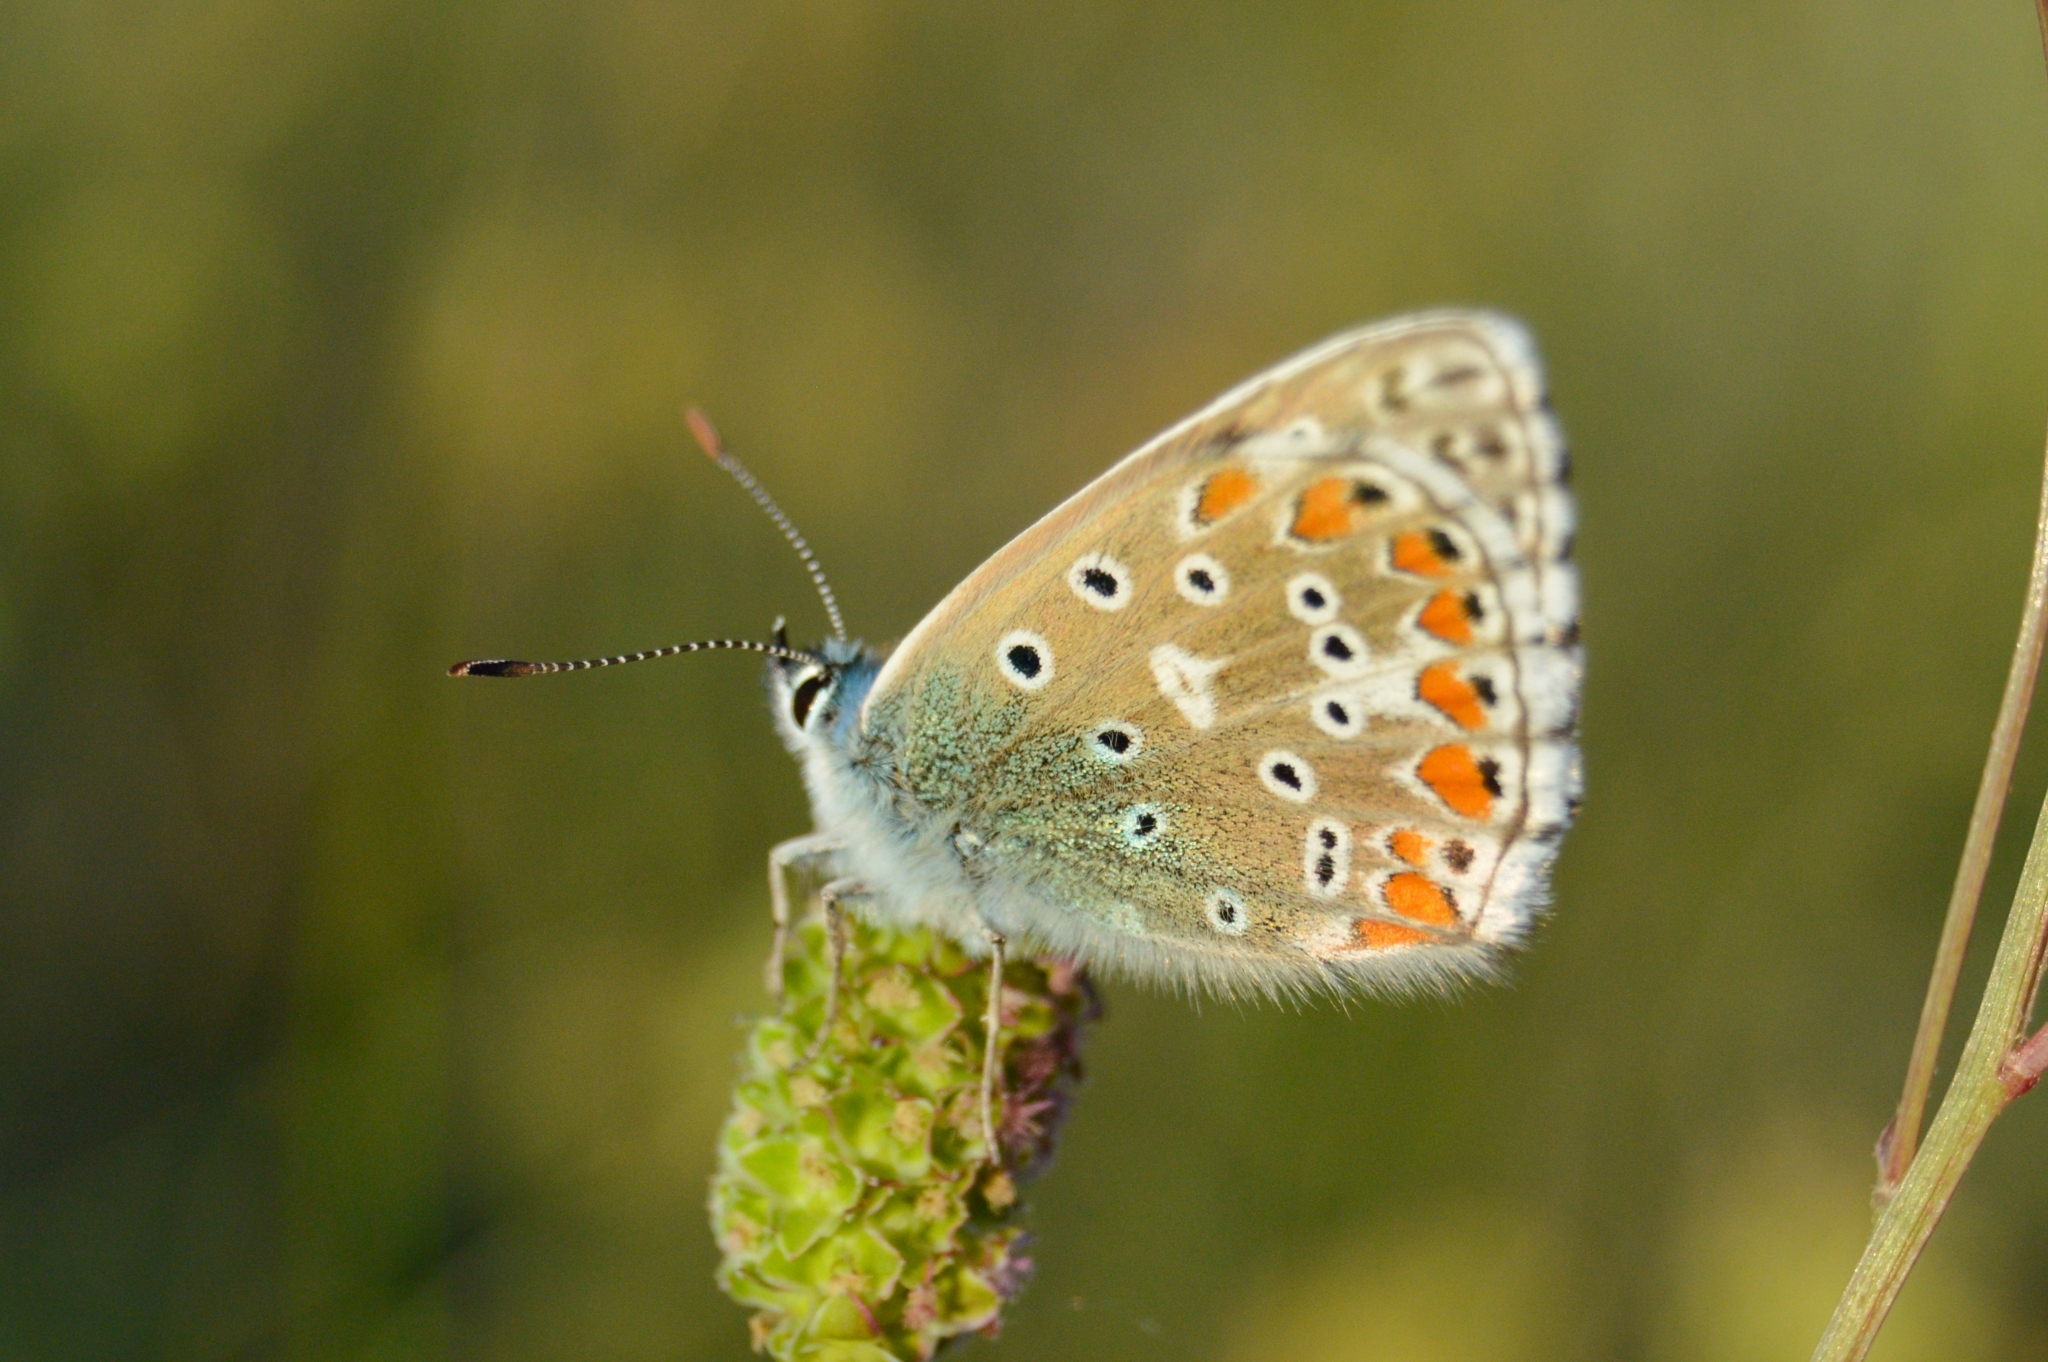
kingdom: Animalia
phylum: Arthropoda
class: Insecta
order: Lepidoptera
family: Lycaenidae
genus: Lysandra
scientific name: Lysandra bellargus
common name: Adonis blue
